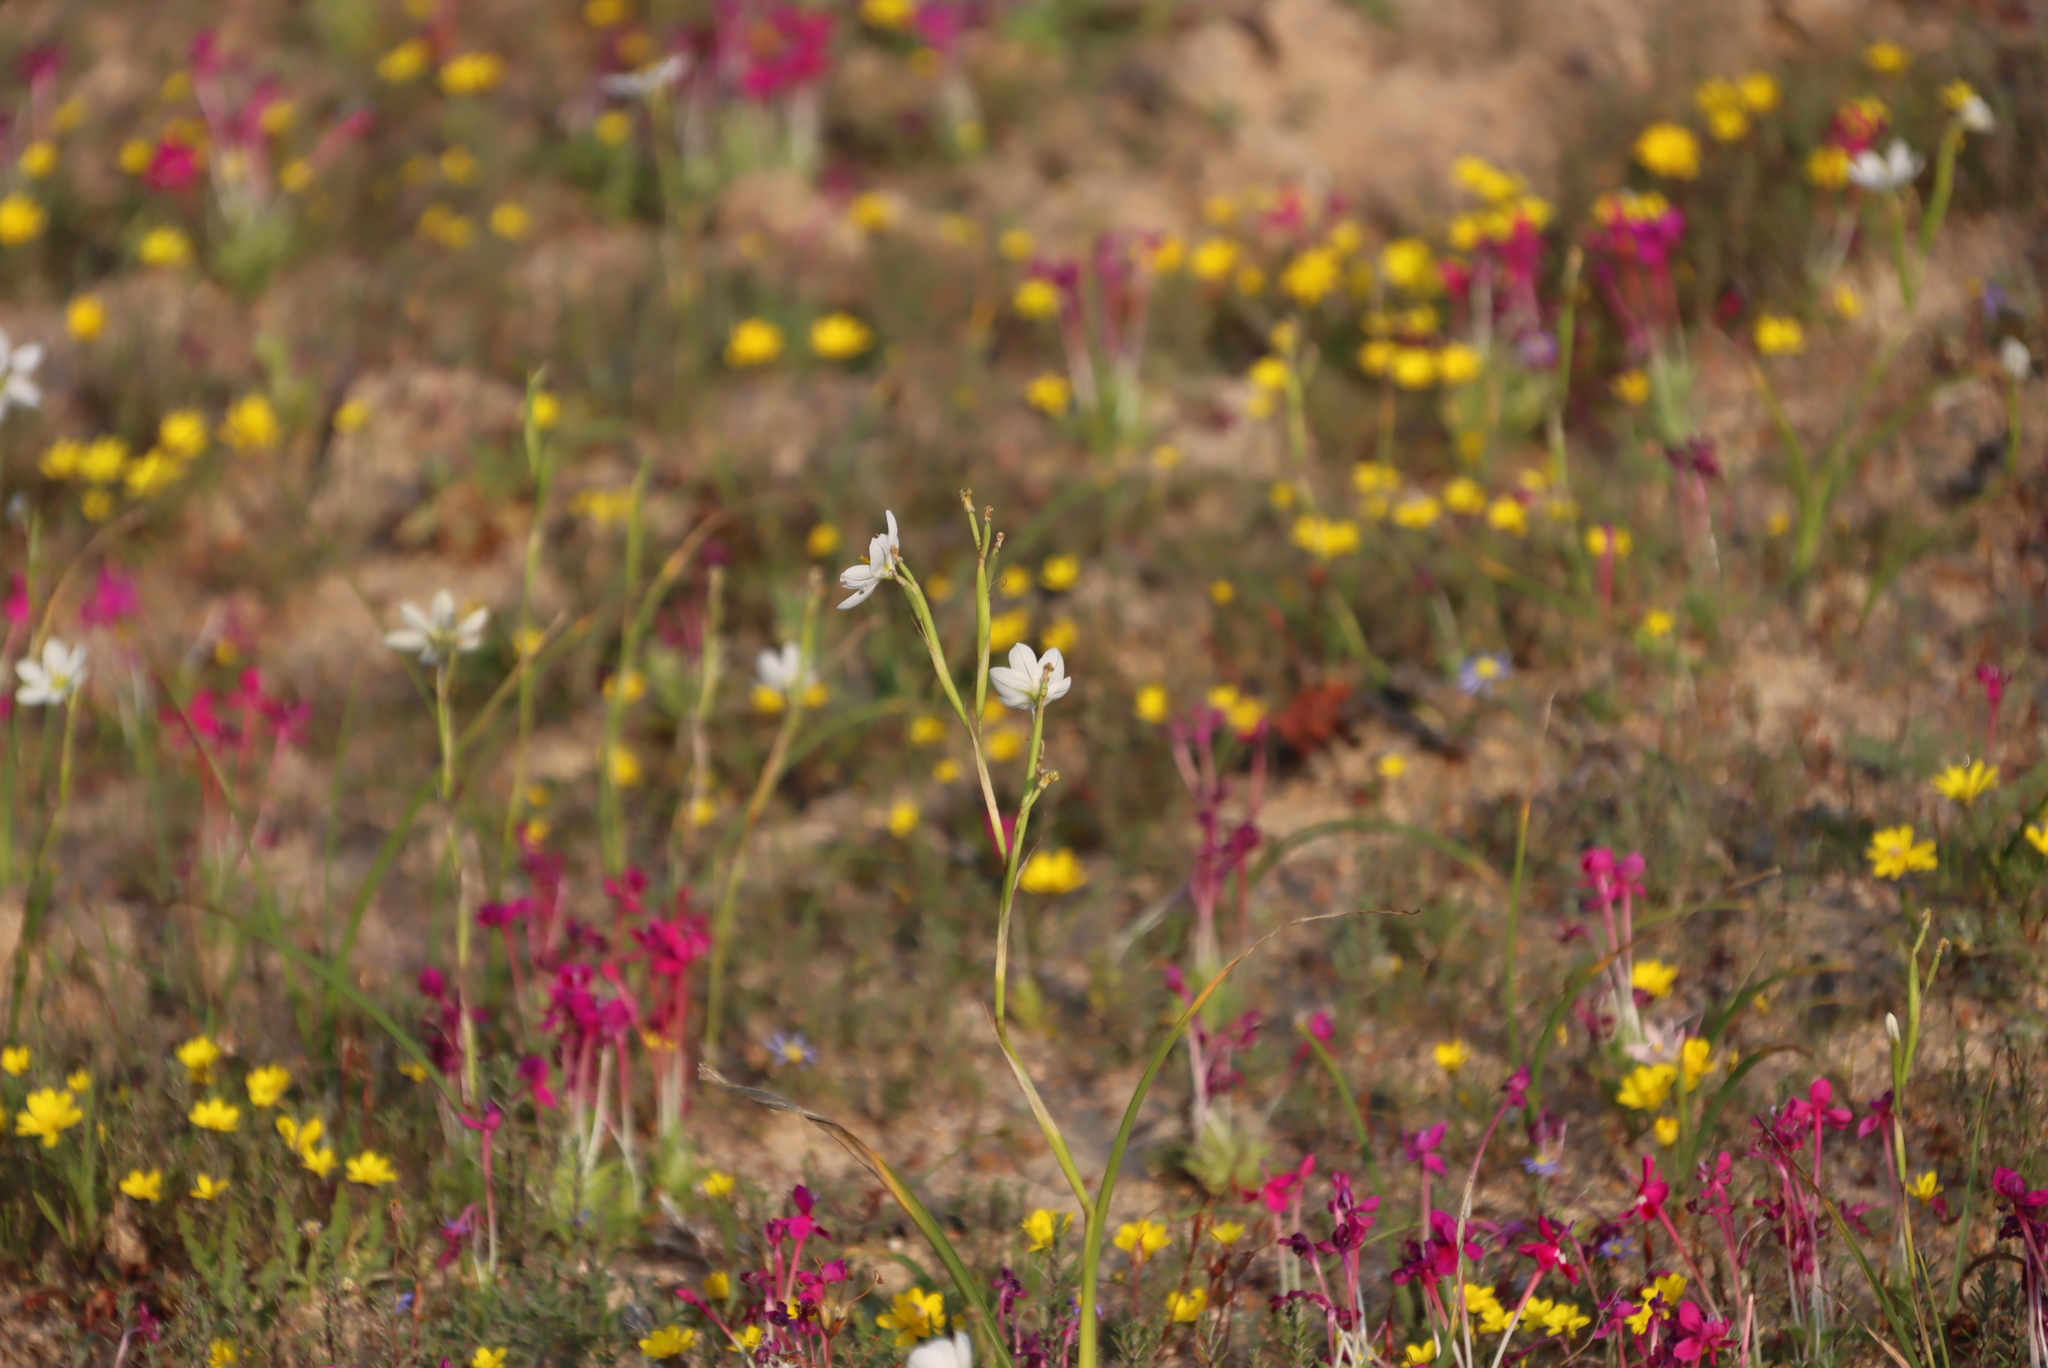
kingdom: Plantae
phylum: Tracheophyta
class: Liliopsida
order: Asparagales
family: Iridaceae
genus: Lapeirousia
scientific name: Lapeirousia silenoides
